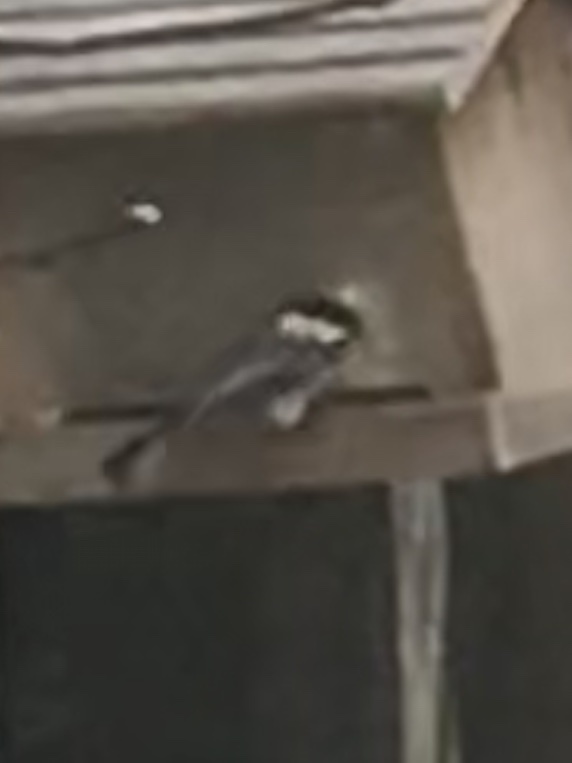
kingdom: Animalia
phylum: Chordata
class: Aves
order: Passeriformes
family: Paridae
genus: Poecile
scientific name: Poecile carolinensis
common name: Carolina chickadee
